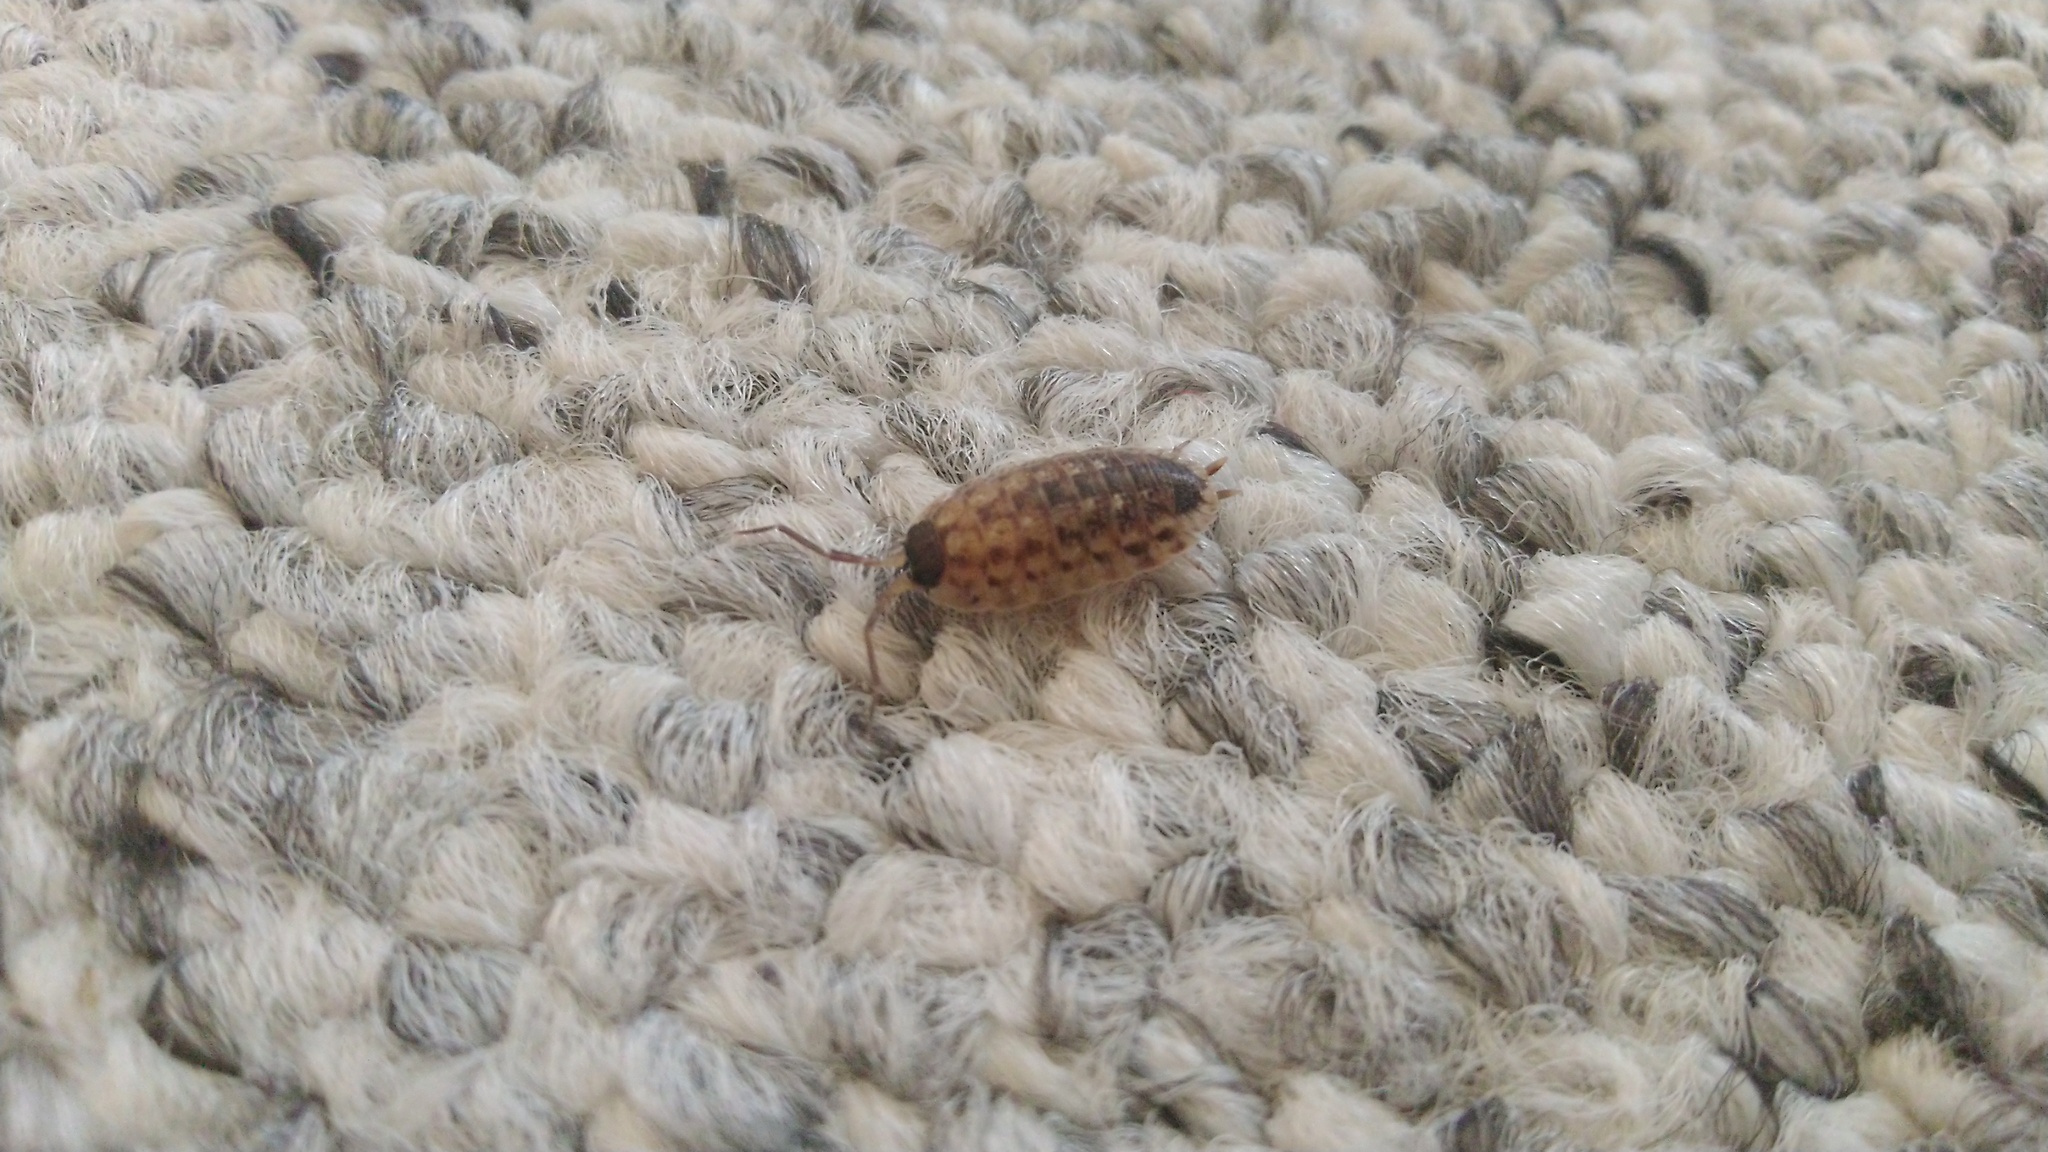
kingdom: Animalia
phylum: Arthropoda
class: Malacostraca
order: Isopoda
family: Porcellionidae
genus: Porcellio
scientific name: Porcellio spinicornis
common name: Painted woodlouse
